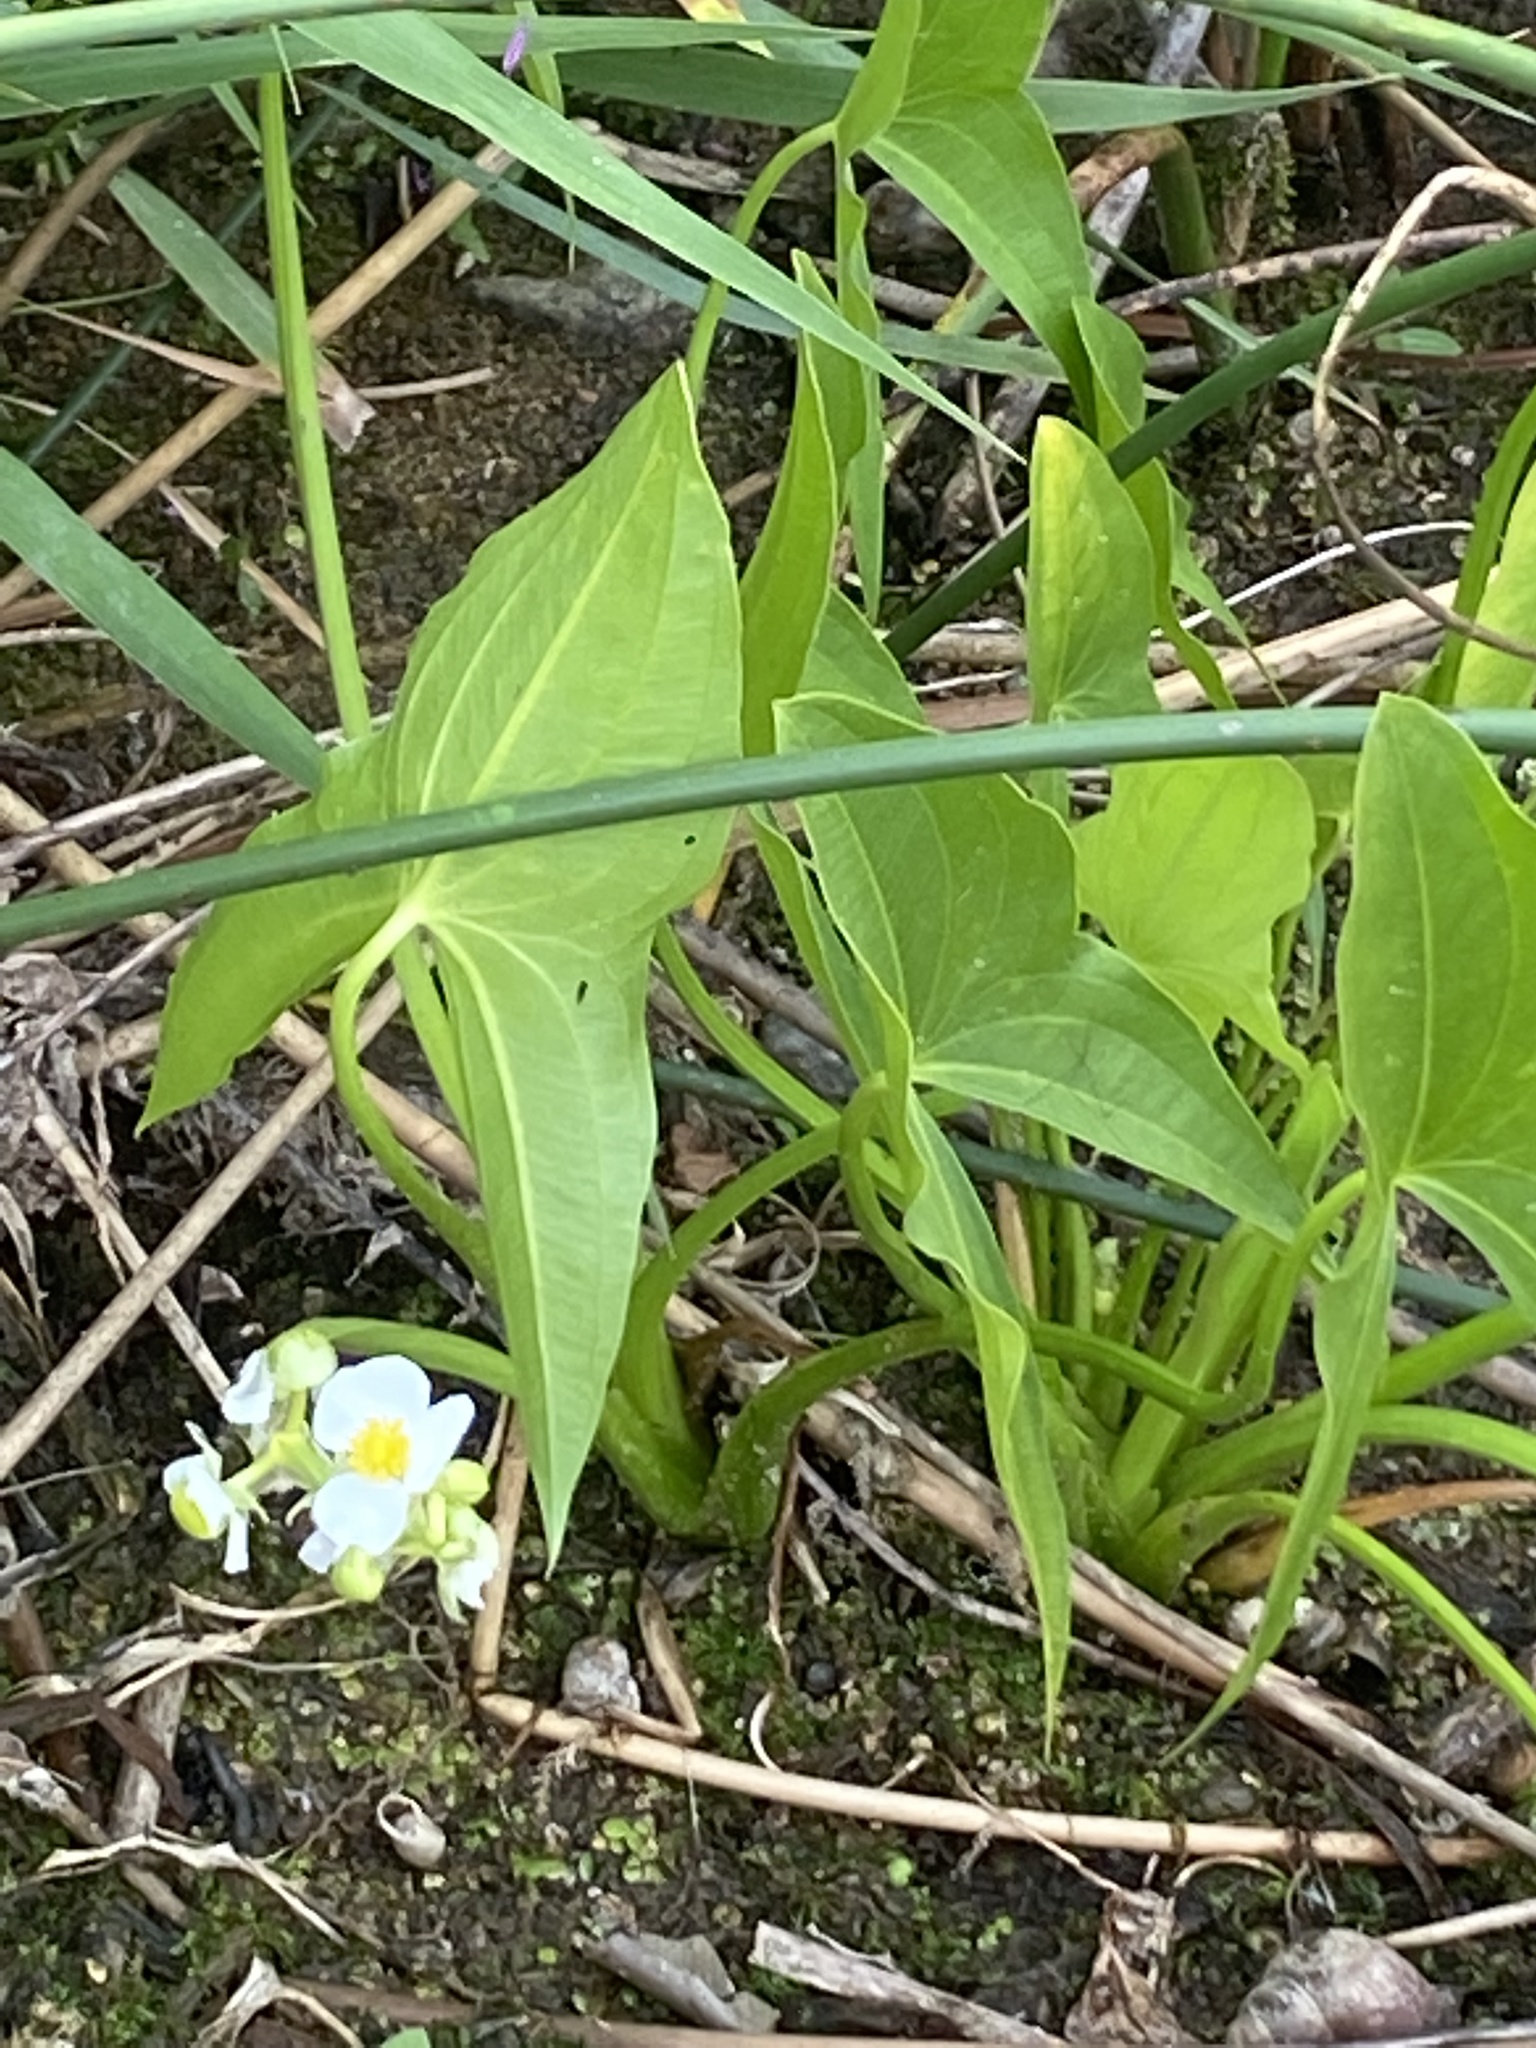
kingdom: Plantae
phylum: Tracheophyta
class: Liliopsida
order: Alismatales
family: Alismataceae
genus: Sagittaria
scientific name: Sagittaria latifolia
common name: Duck-potato
